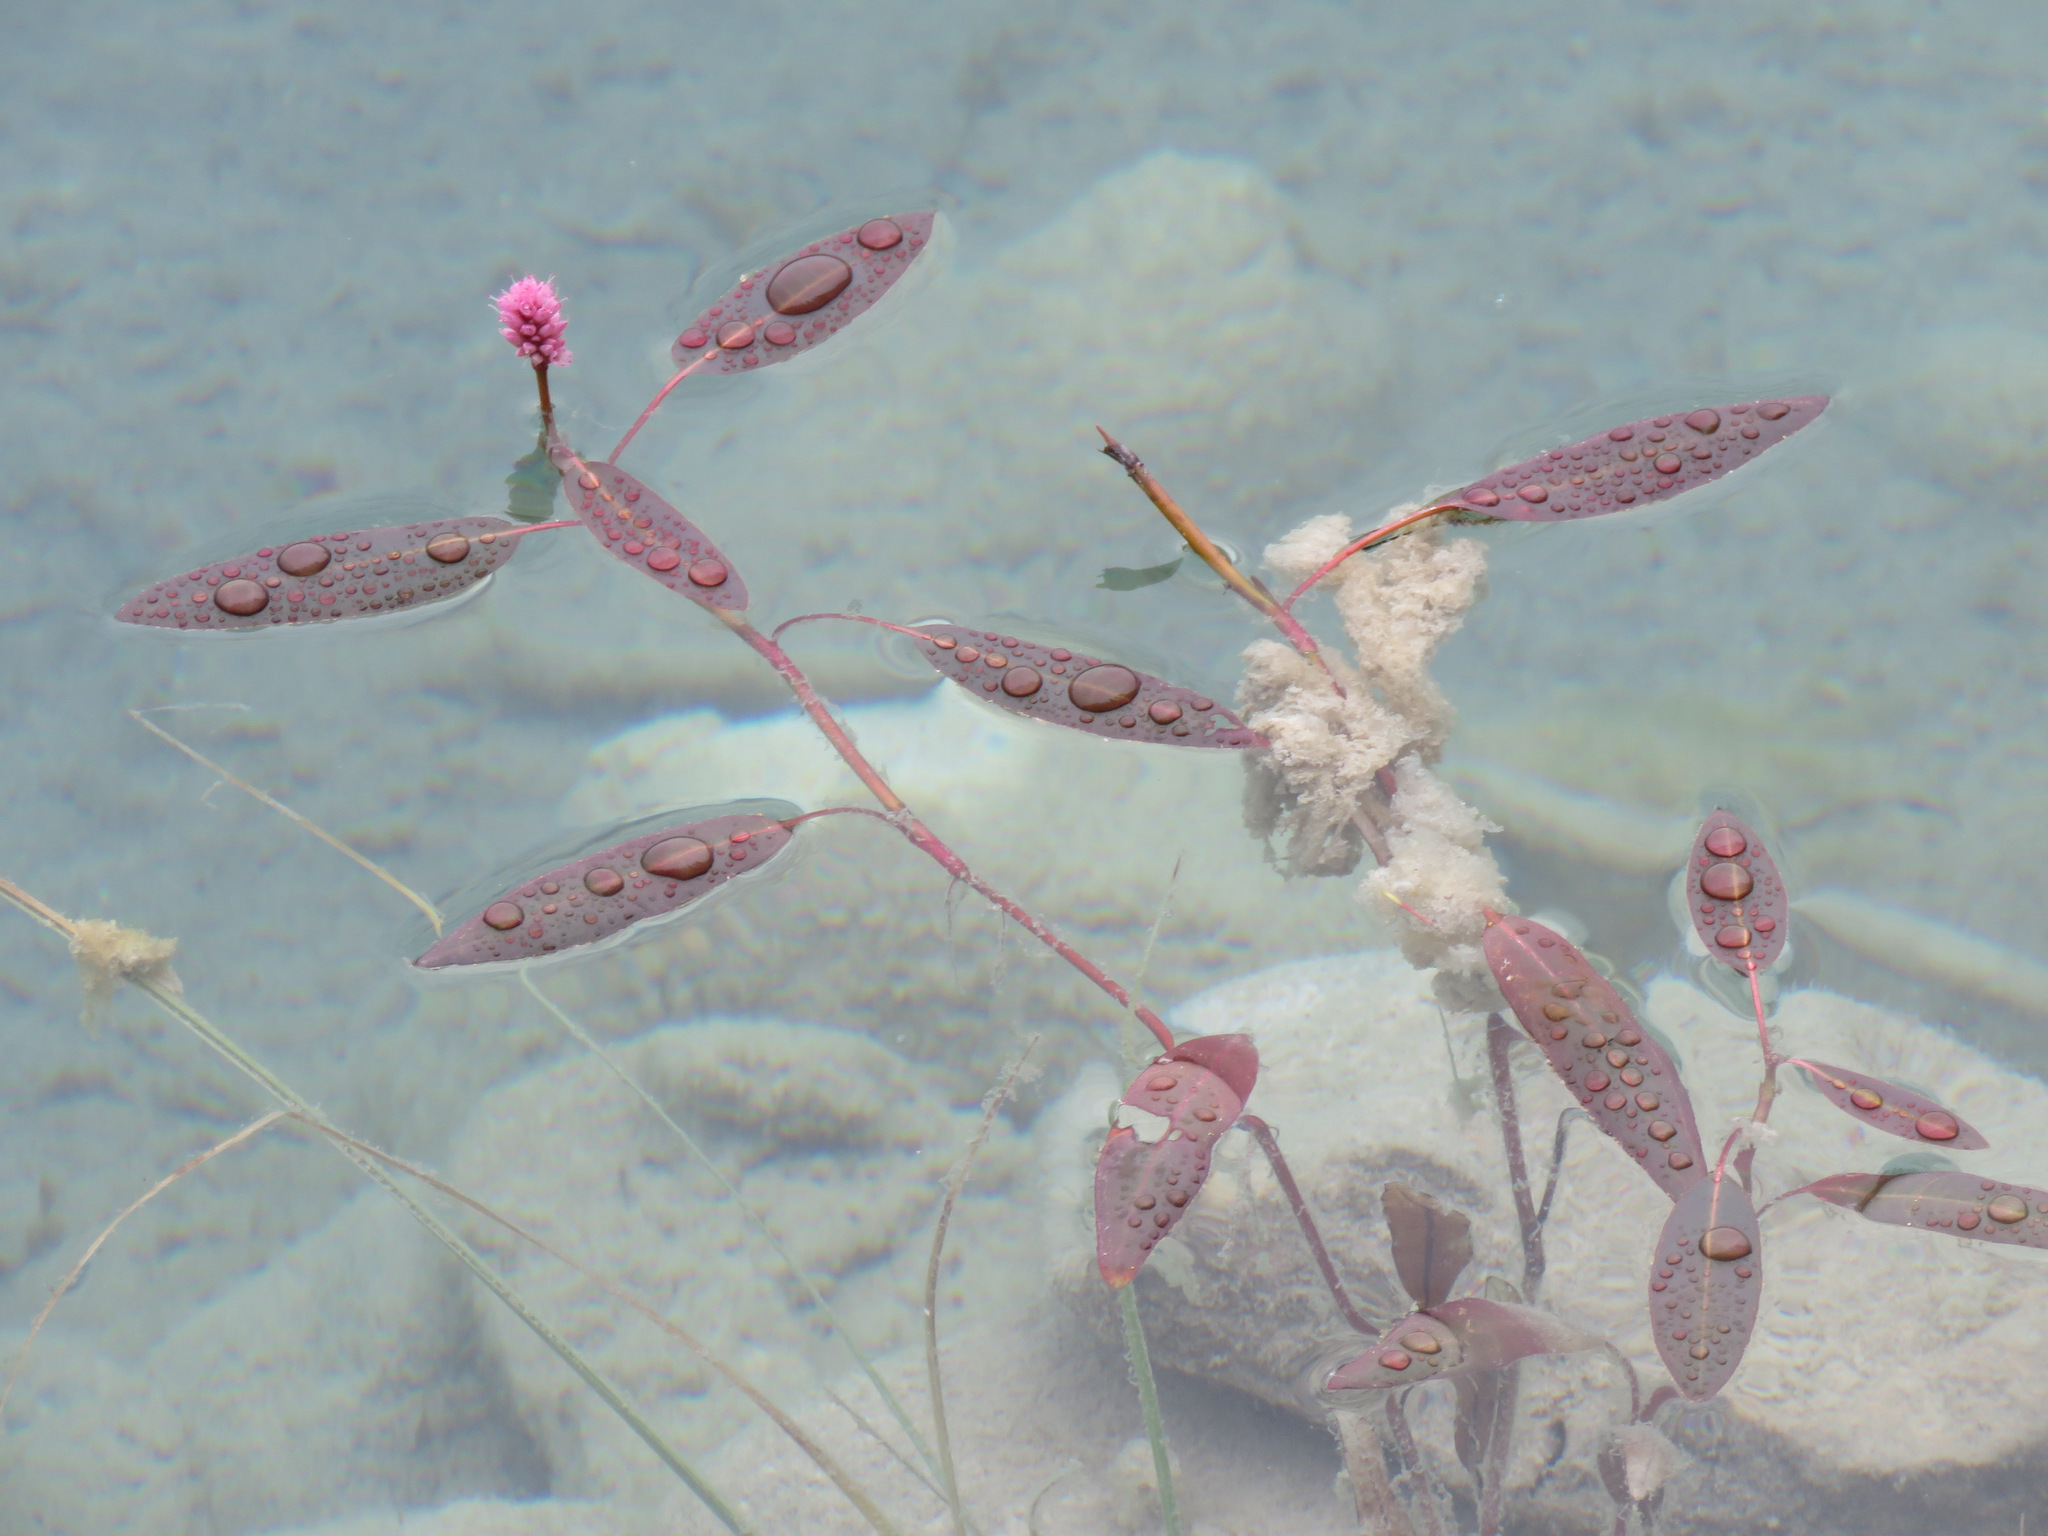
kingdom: Plantae
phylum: Tracheophyta
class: Magnoliopsida
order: Caryophyllales
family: Polygonaceae
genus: Persicaria
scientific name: Persicaria amphibia
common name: Amphibious bistort
